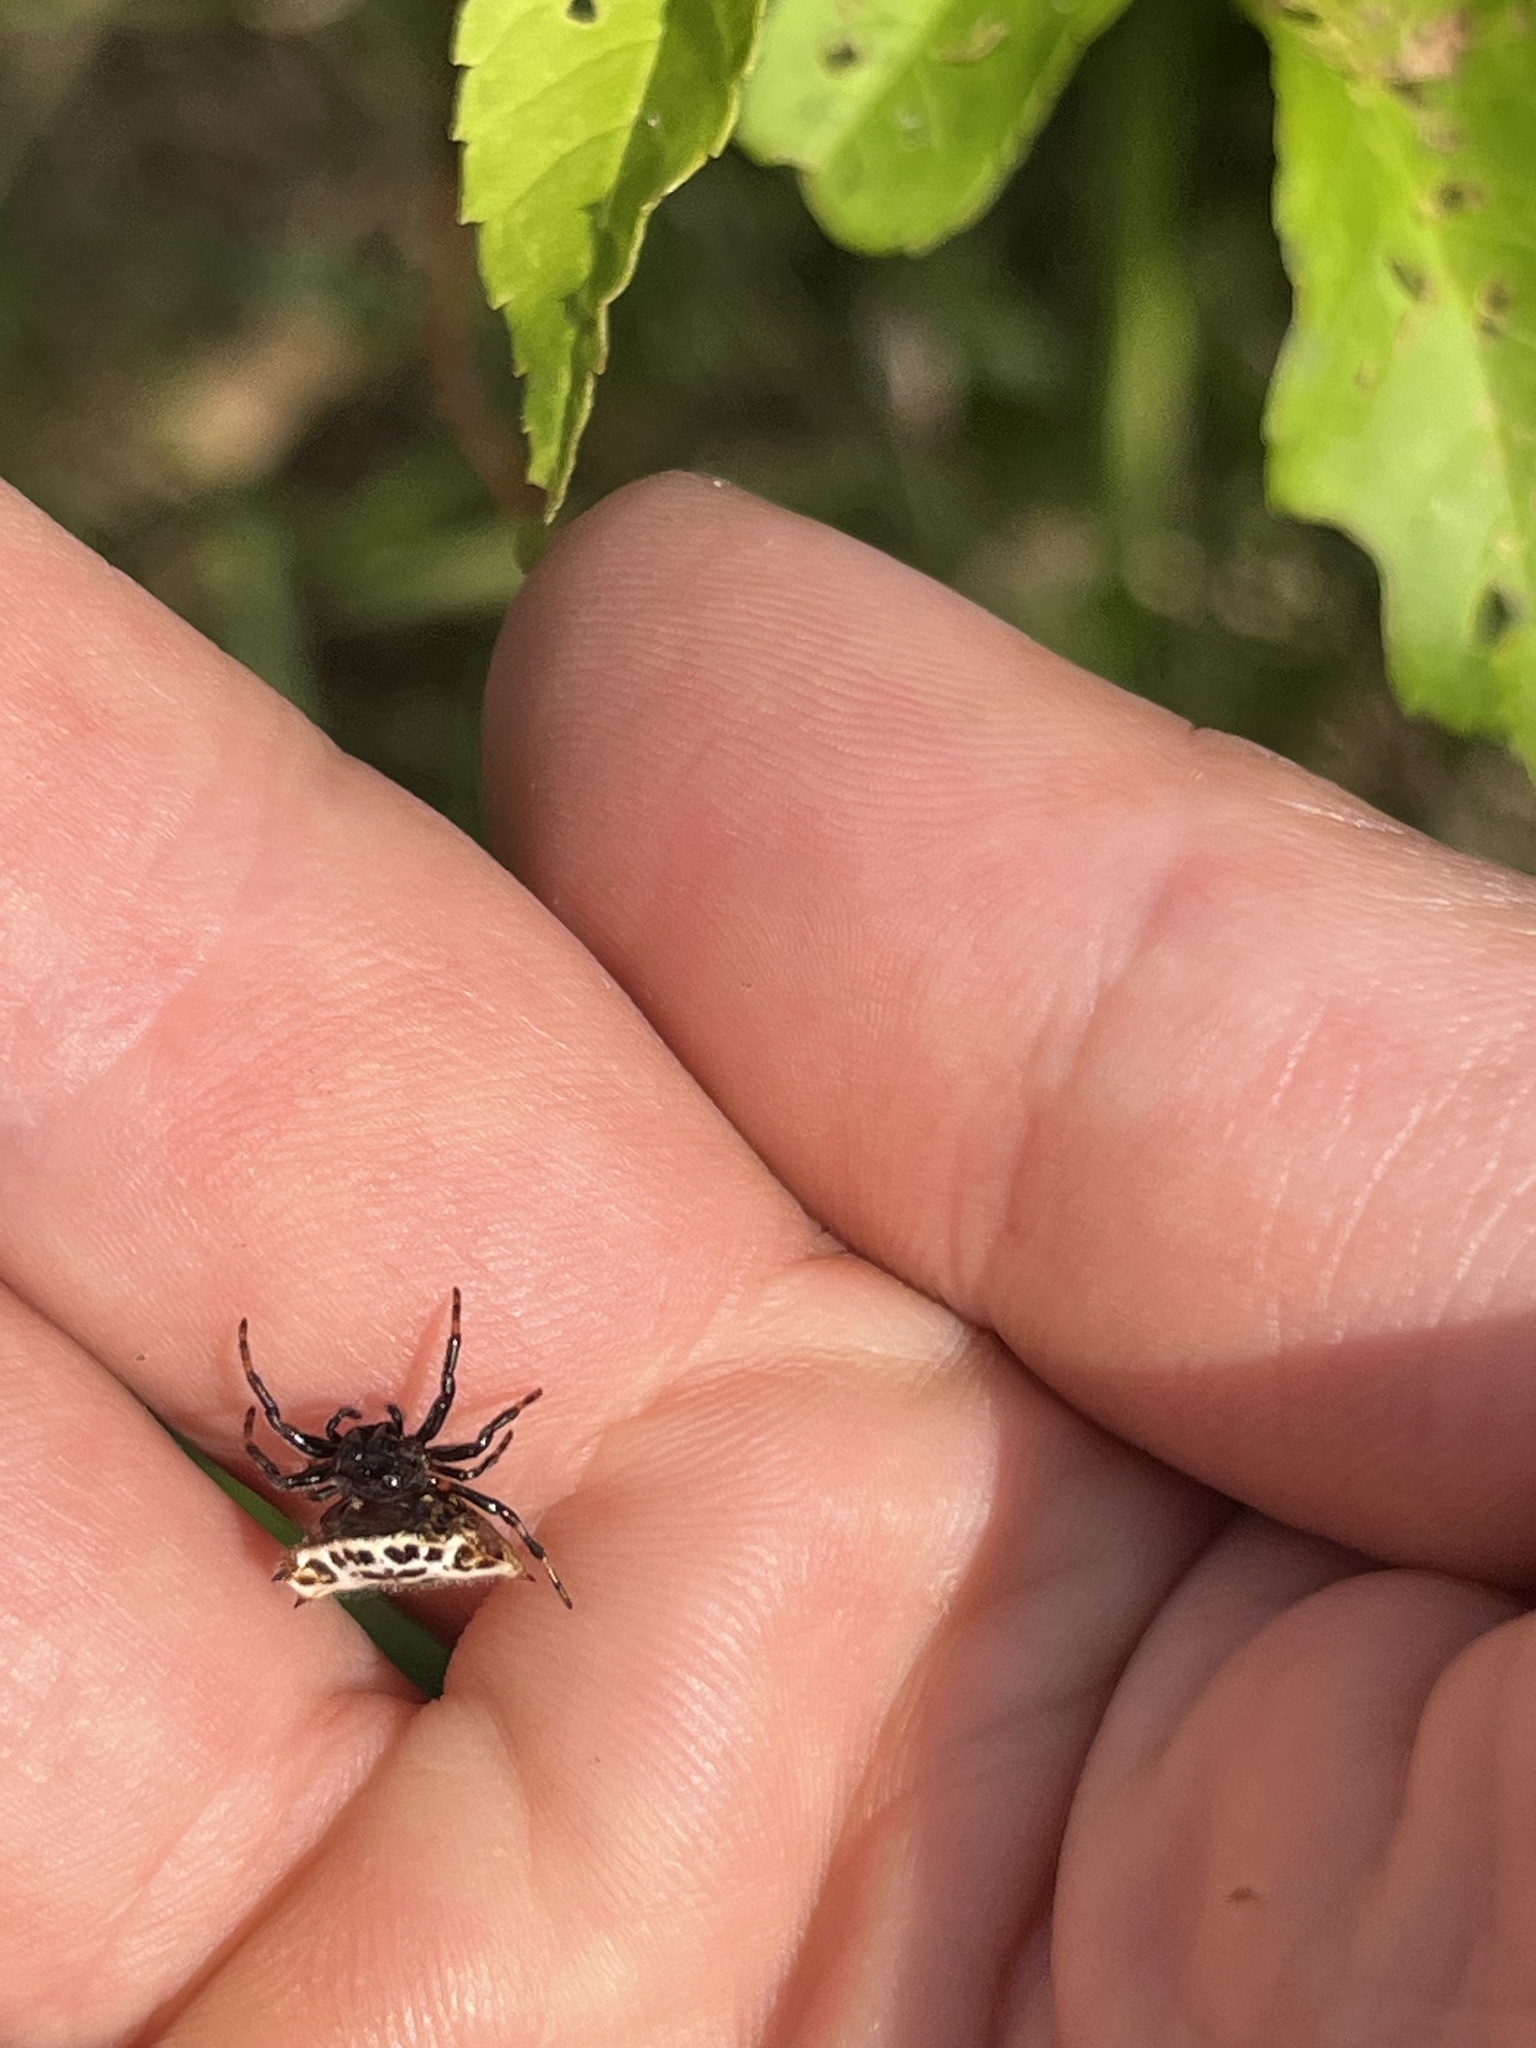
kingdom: Animalia
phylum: Arthropoda
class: Arachnida
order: Araneae
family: Araneidae
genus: Gasteracantha
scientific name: Gasteracantha cancriformis
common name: Orb weavers
